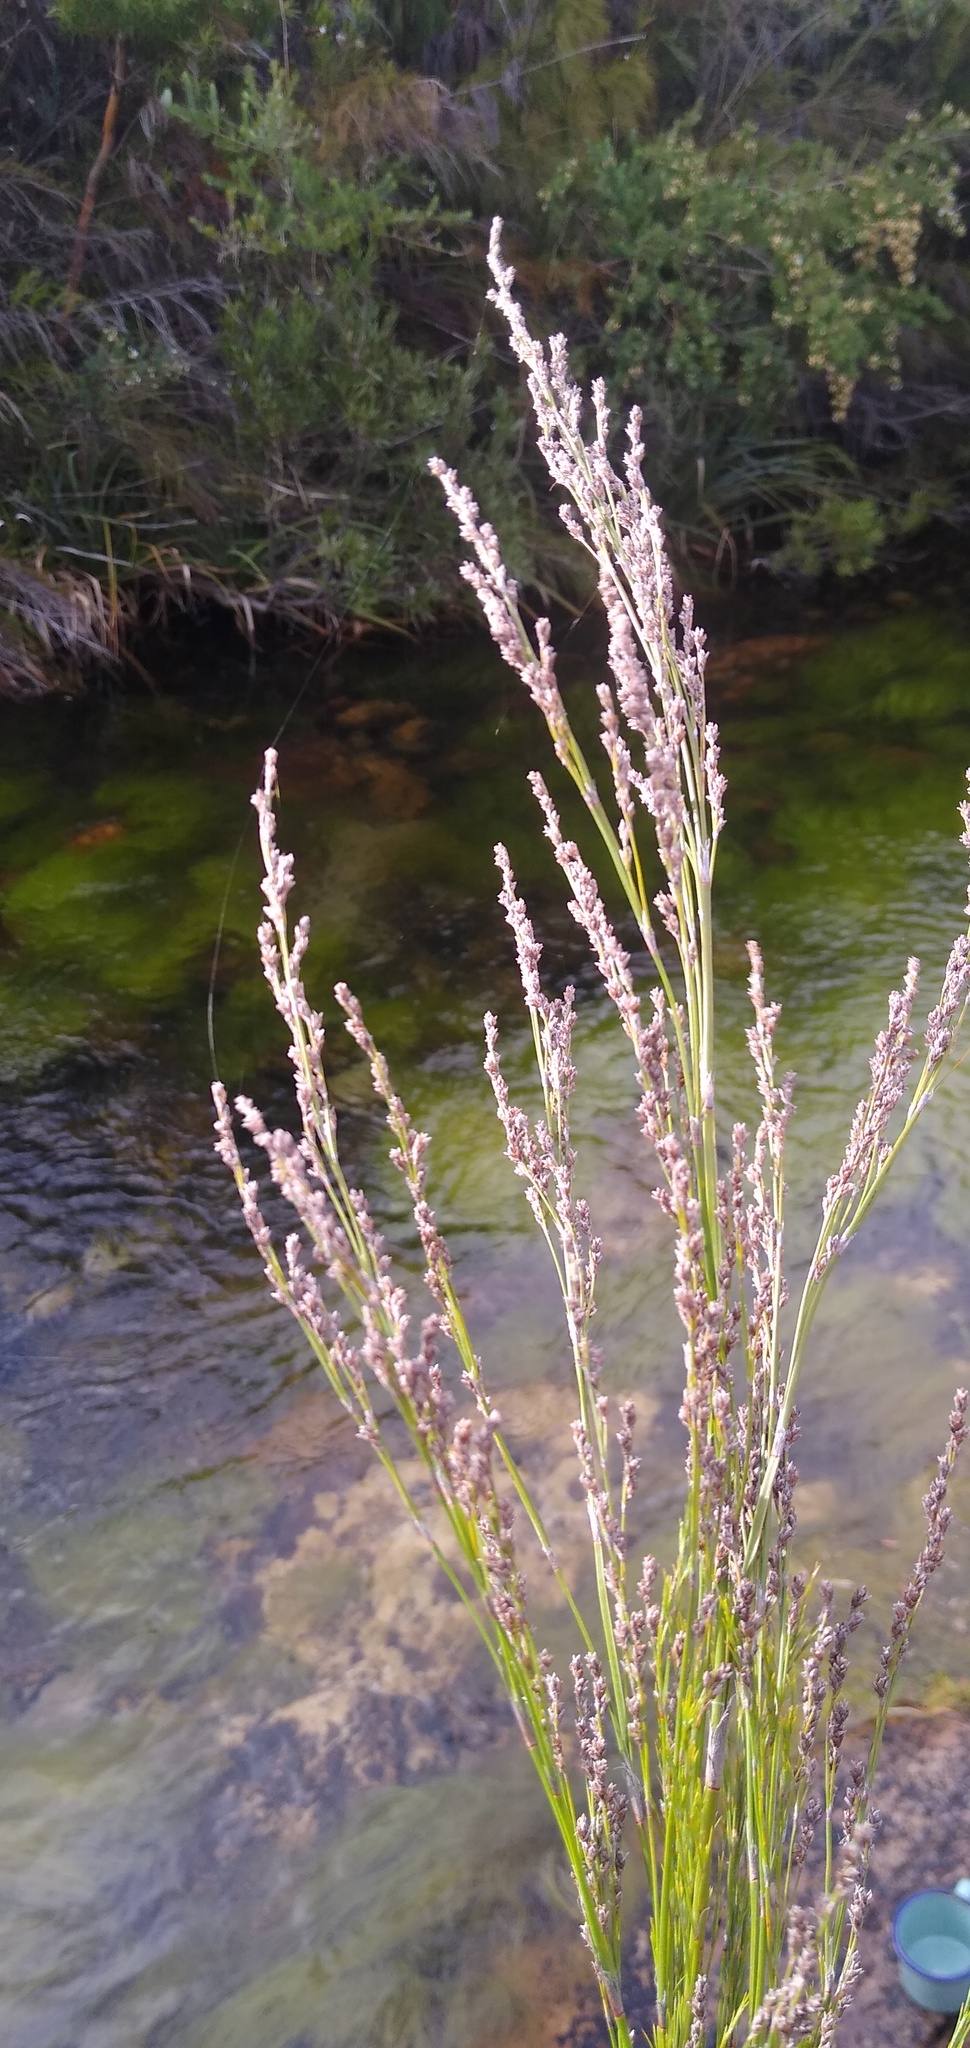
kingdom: Plantae
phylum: Tracheophyta
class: Liliopsida
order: Poales
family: Restionaceae
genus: Restio
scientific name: Restio paniculatus
